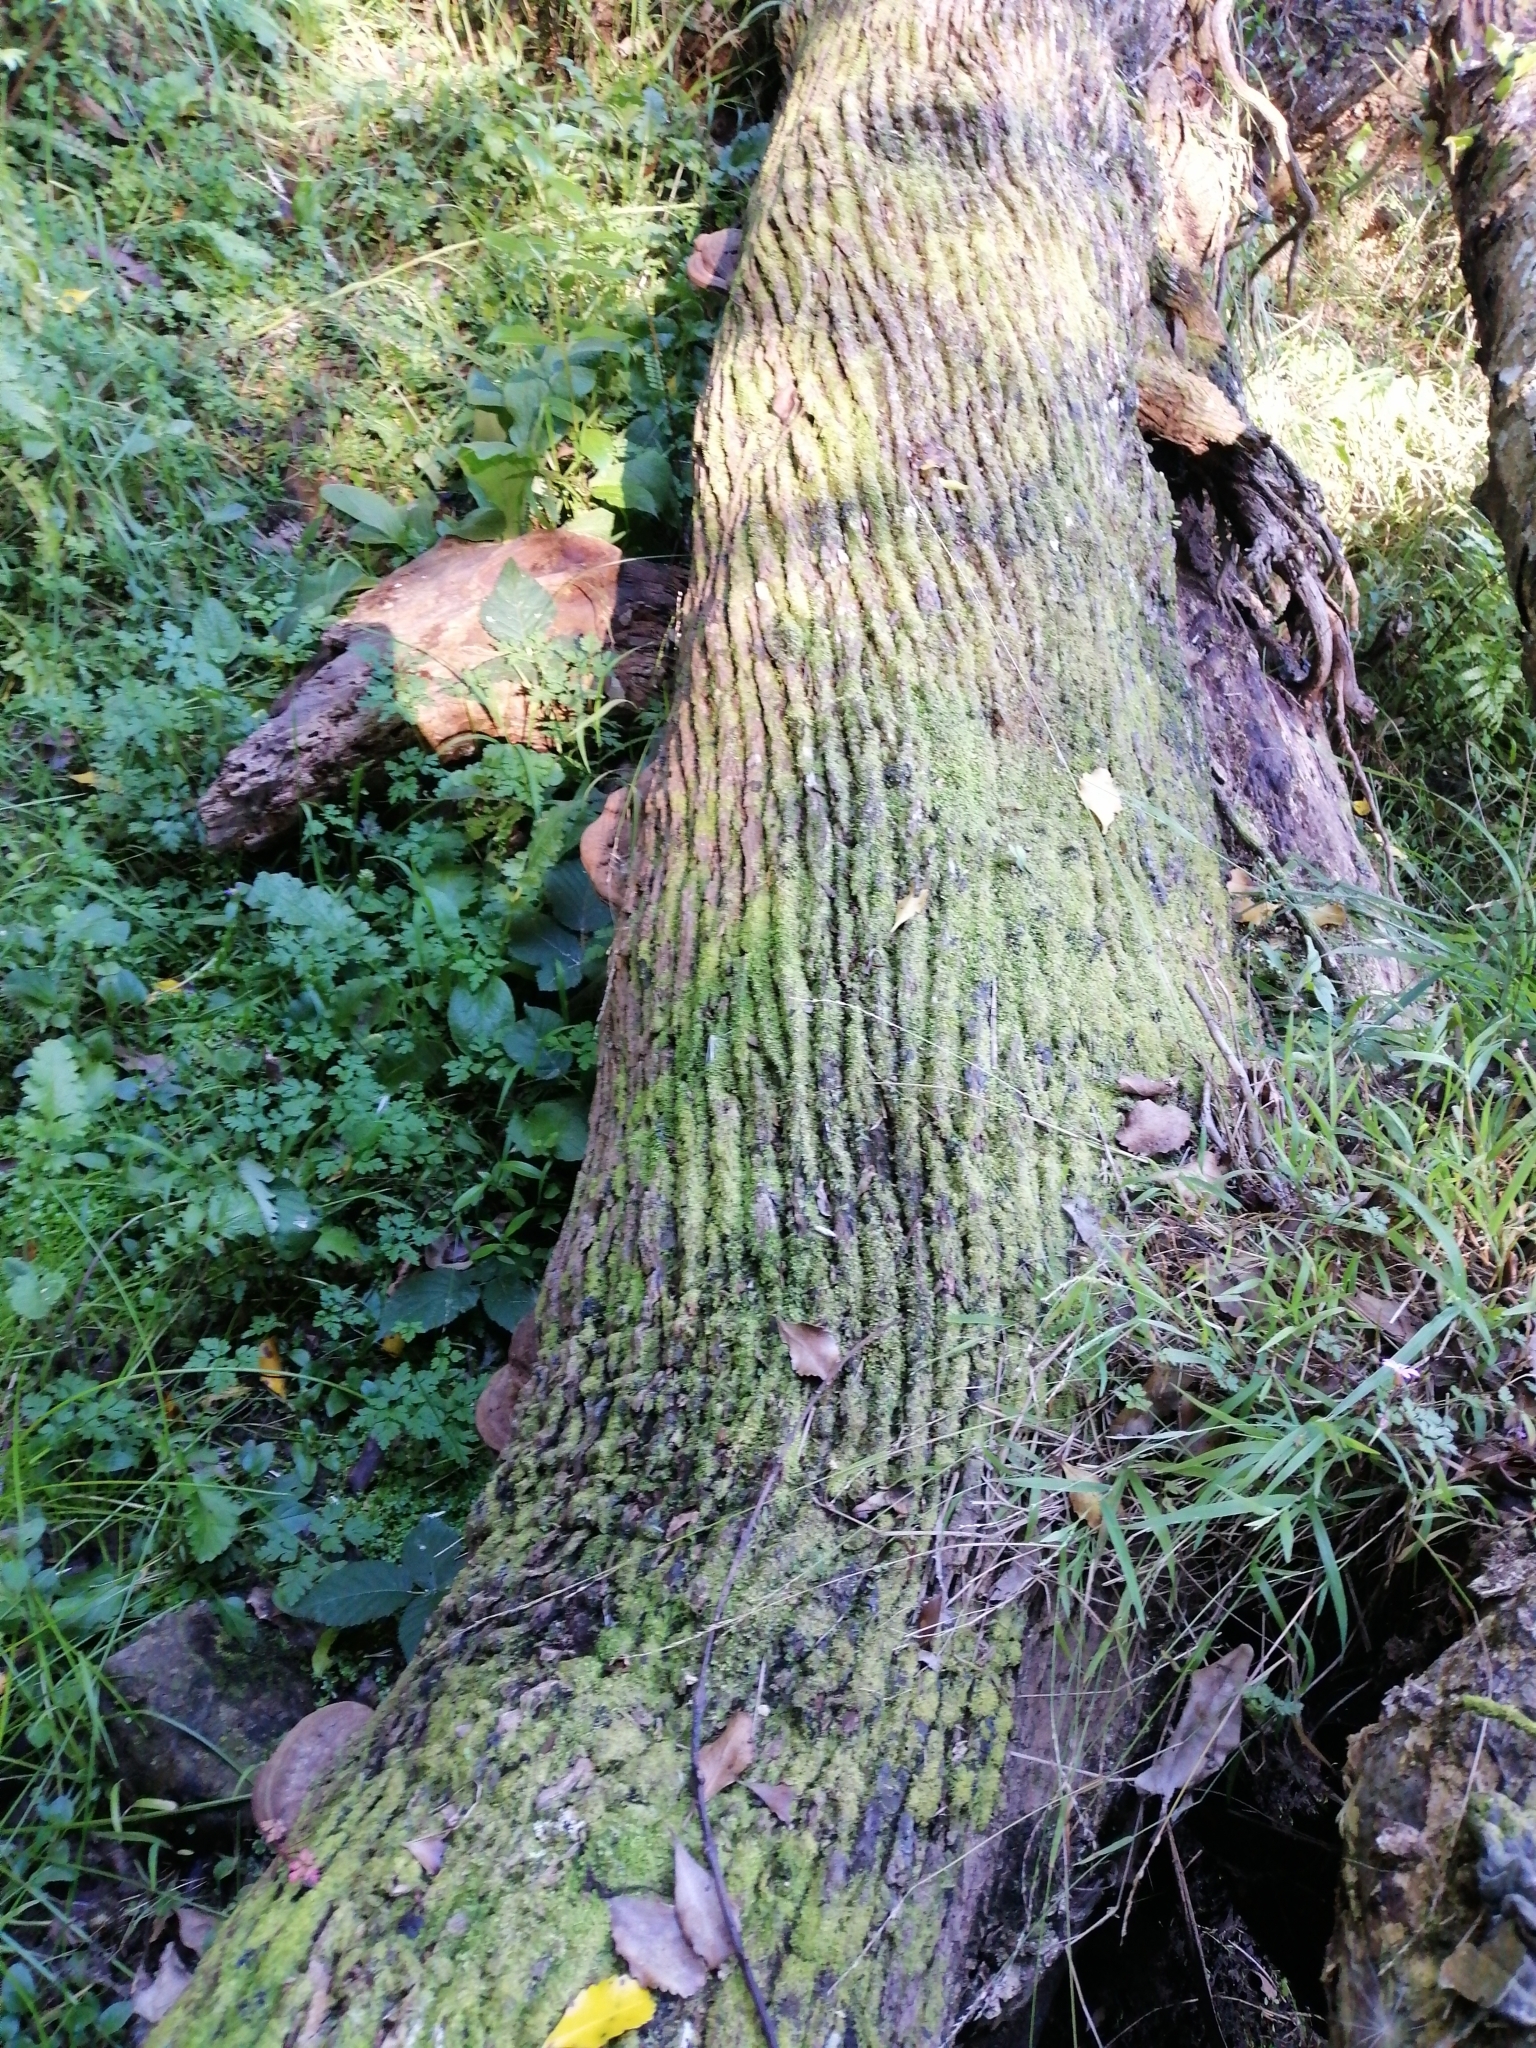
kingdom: Plantae
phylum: Tracheophyta
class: Magnoliopsida
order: Apiales
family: Griseliniaceae
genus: Griselinia
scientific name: Griselinia lucida
